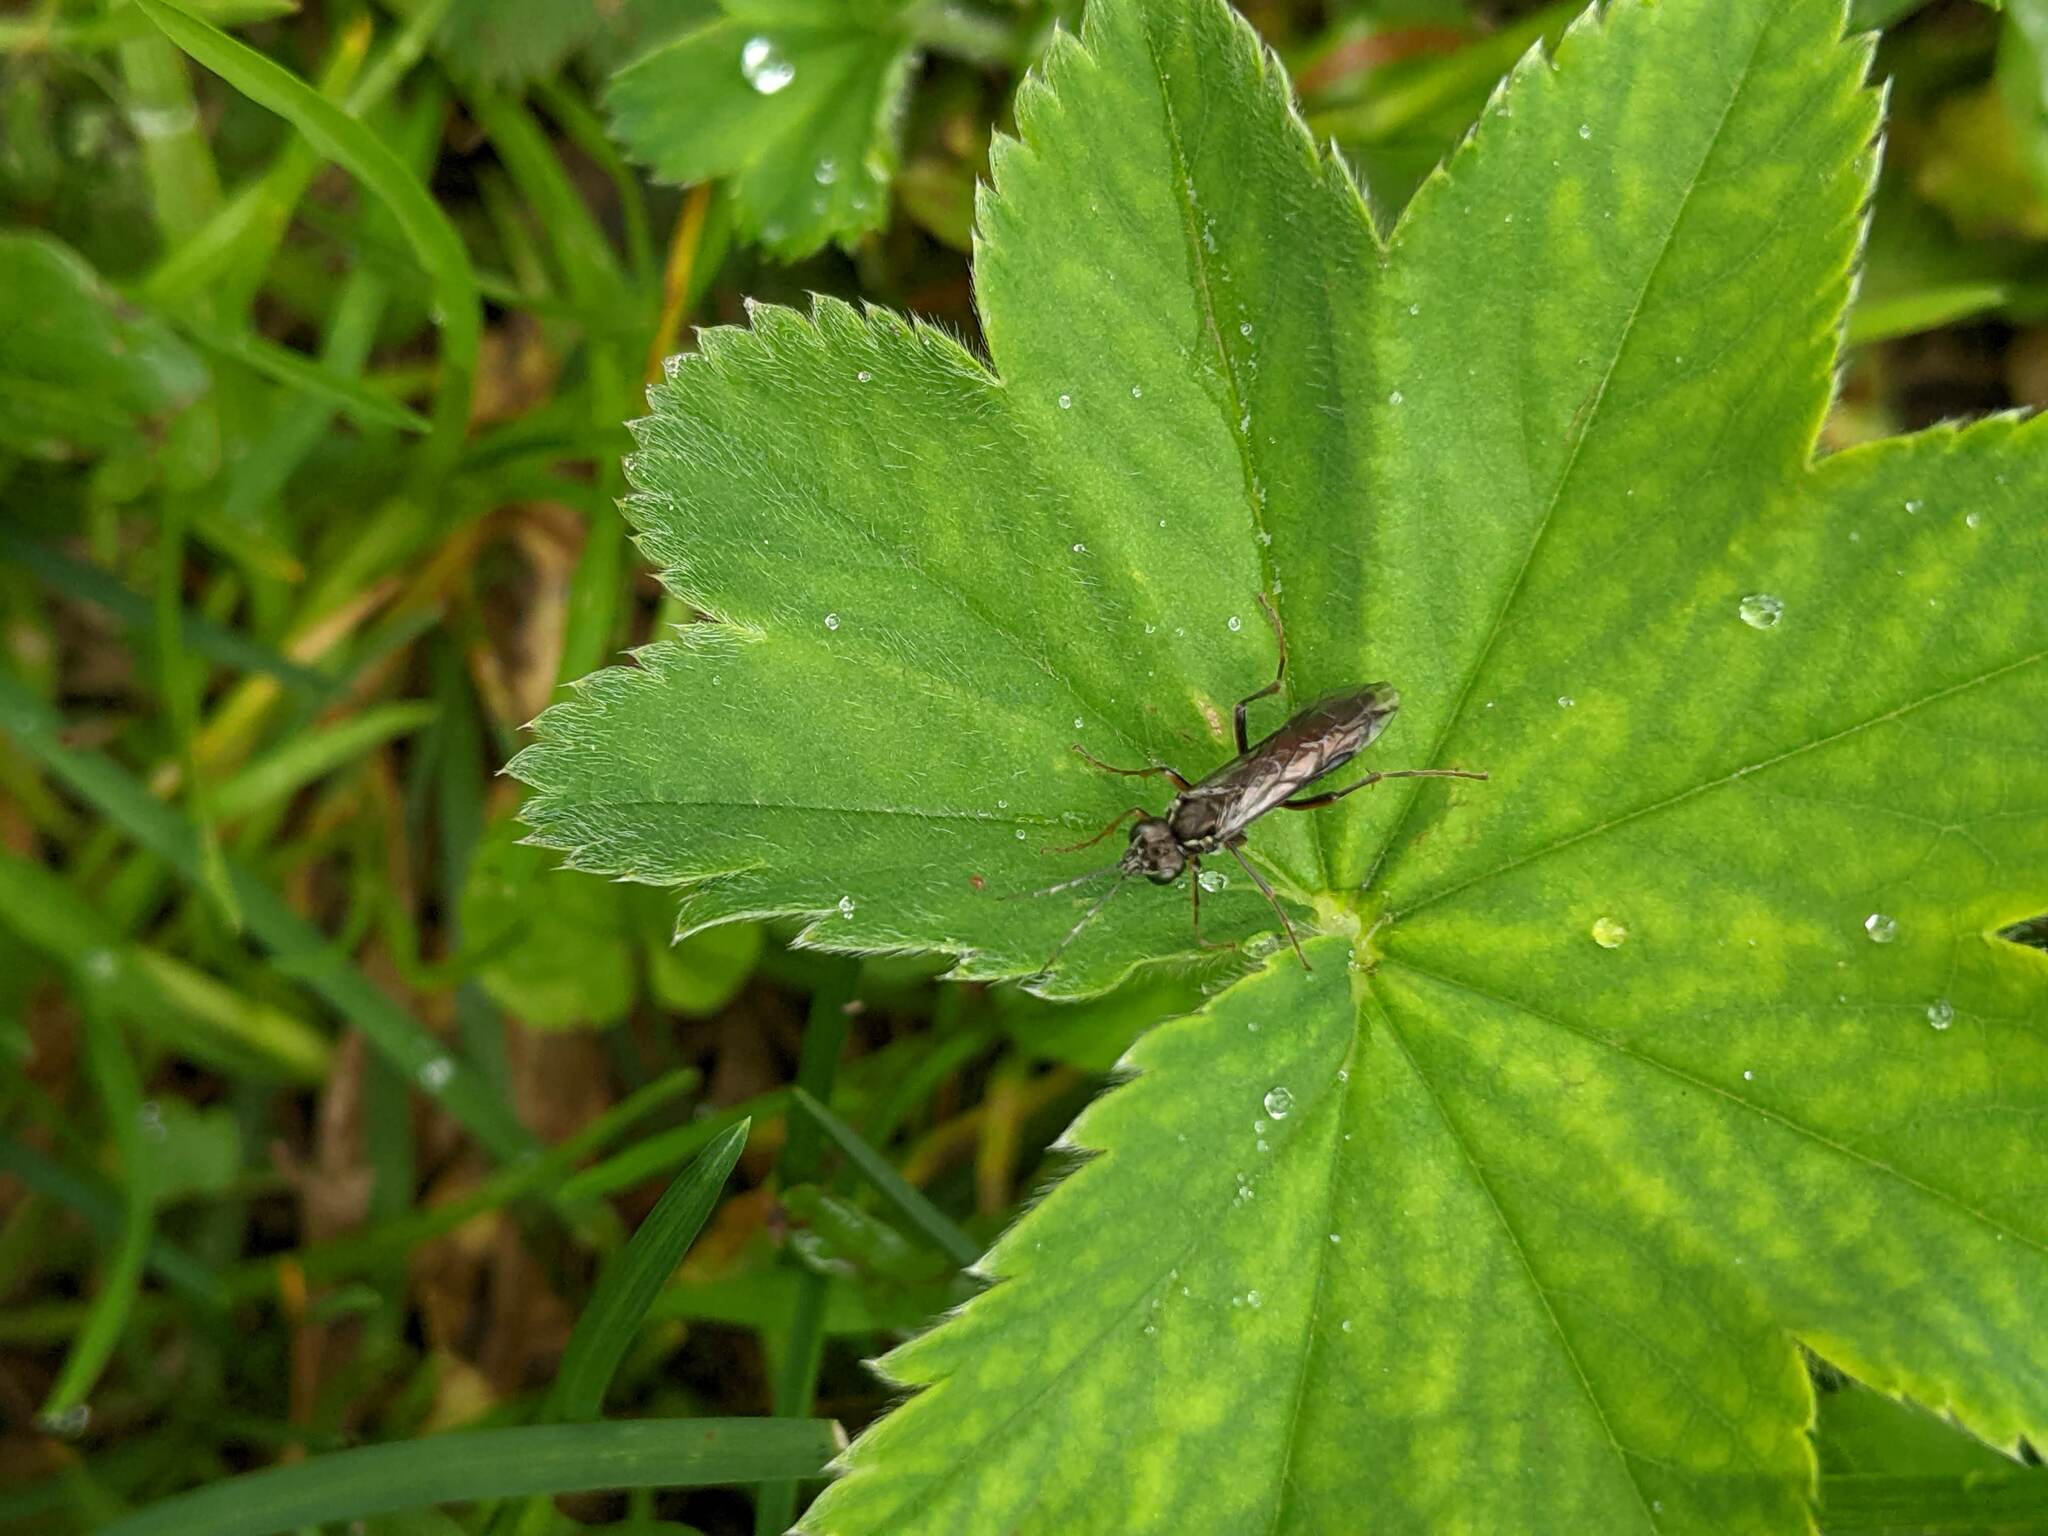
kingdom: Animalia
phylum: Arthropoda
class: Insecta
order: Hymenoptera
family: Tenthredinidae
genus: Tenthredo
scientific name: Tenthredo balteata
